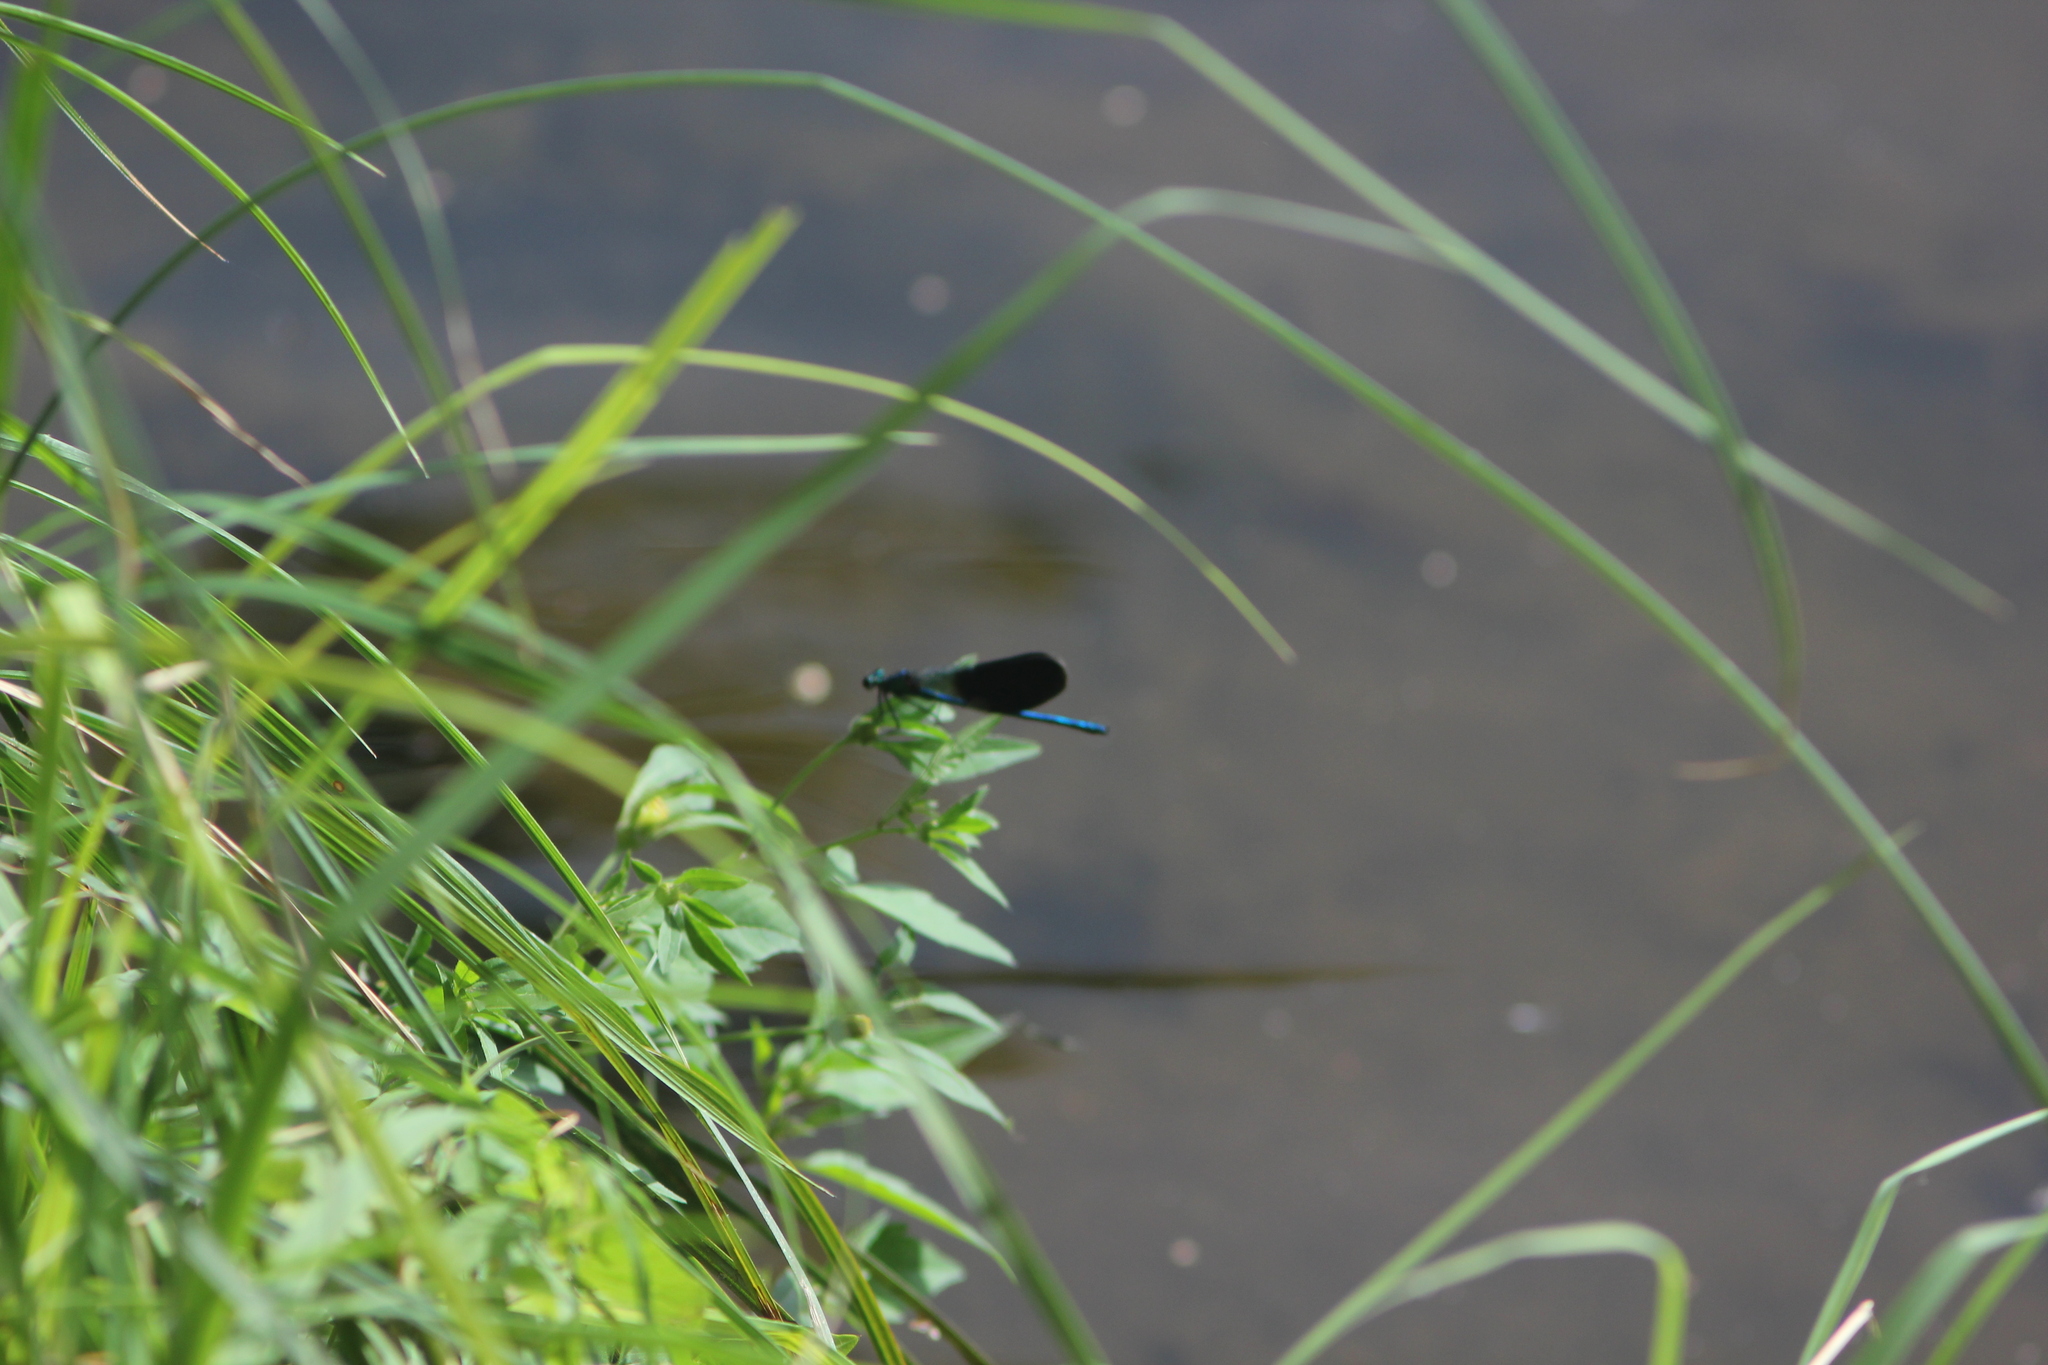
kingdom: Animalia
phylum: Arthropoda
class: Insecta
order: Odonata
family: Calopterygidae
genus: Calopteryx
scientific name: Calopteryx splendens
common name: Banded demoiselle
